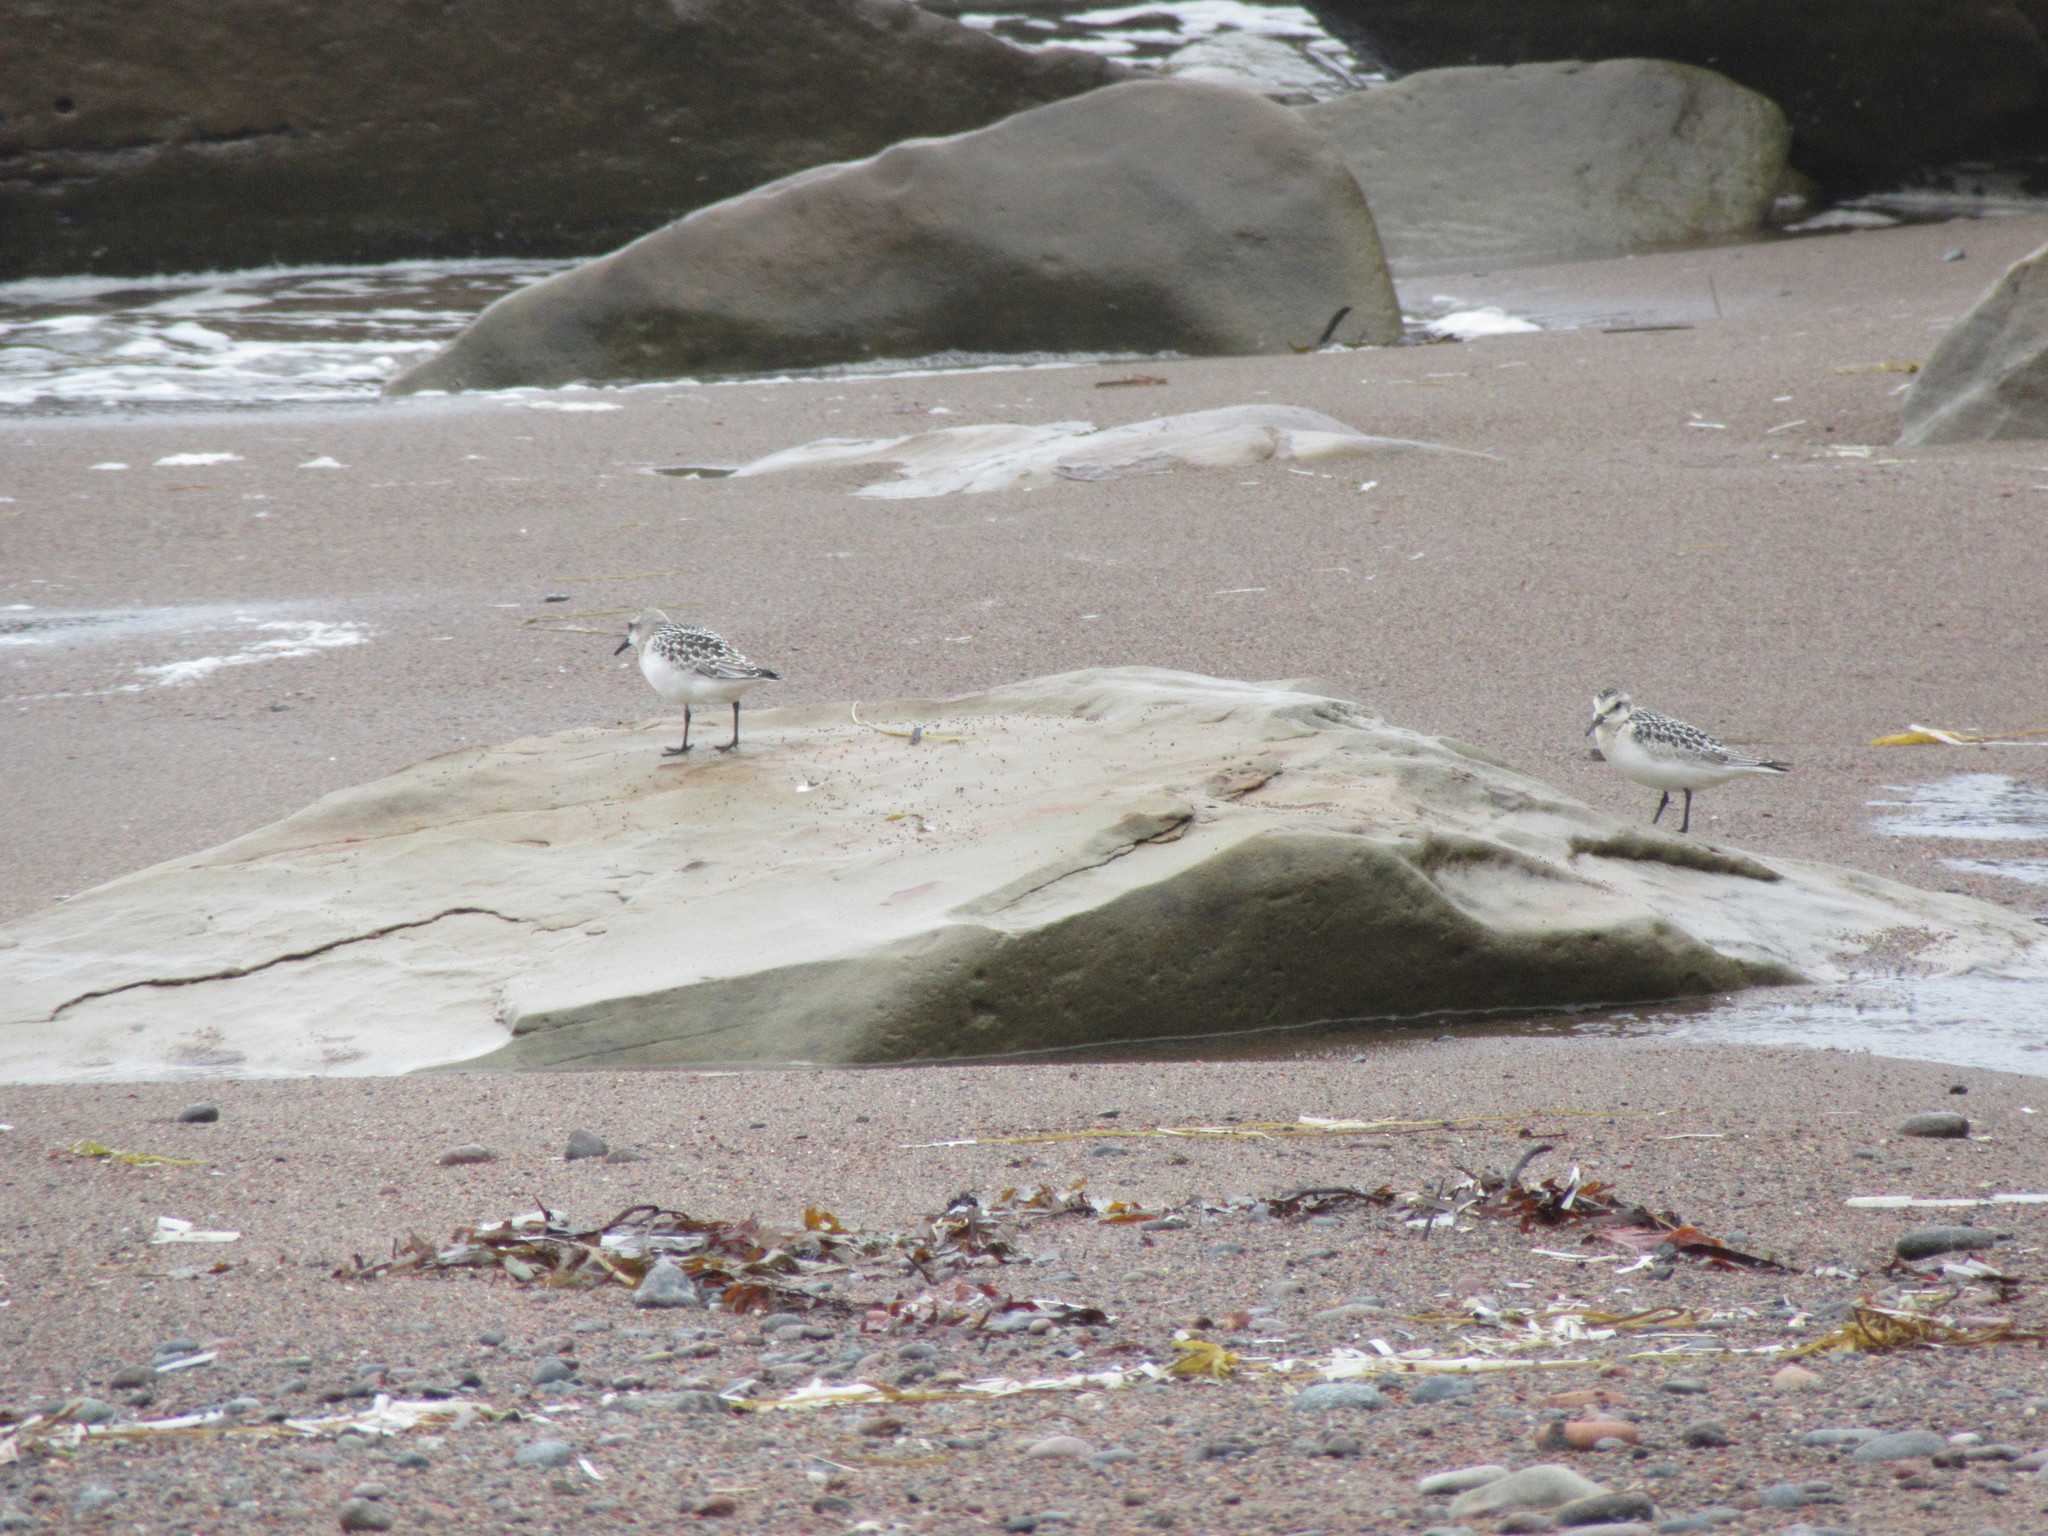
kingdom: Animalia
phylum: Chordata
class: Aves
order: Charadriiformes
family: Scolopacidae
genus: Calidris
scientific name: Calidris alba
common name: Sanderling
